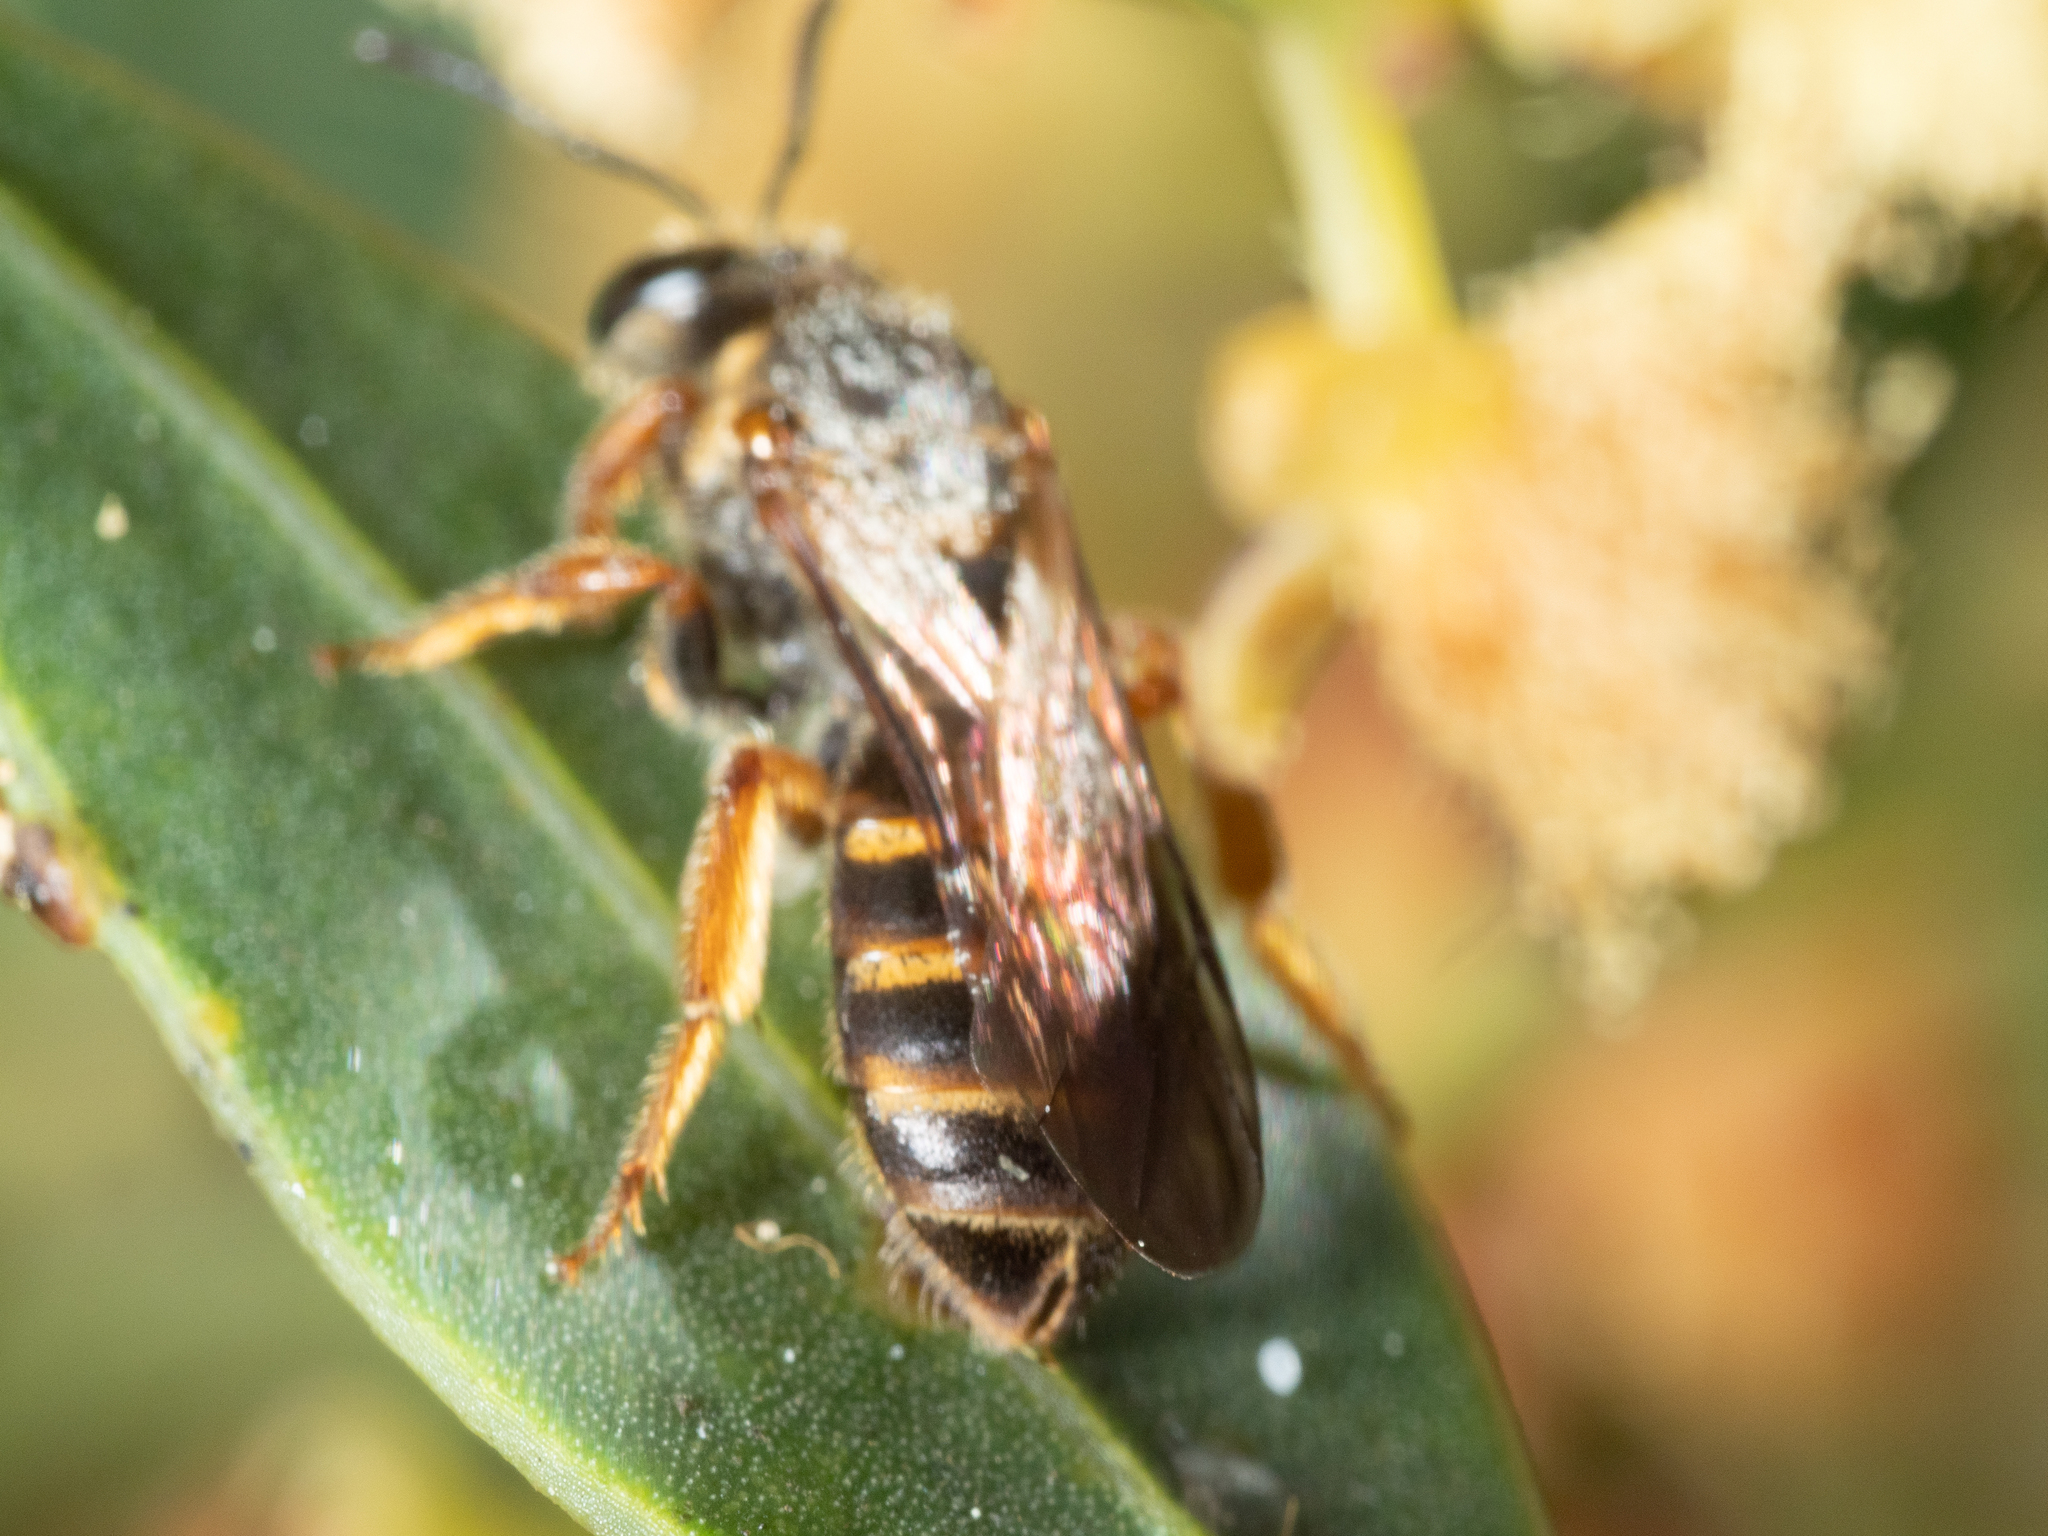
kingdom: Animalia
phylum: Arthropoda
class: Insecta
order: Hymenoptera
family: Halictidae
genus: Lasioglossum
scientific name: Lasioglossum bicingulatum
